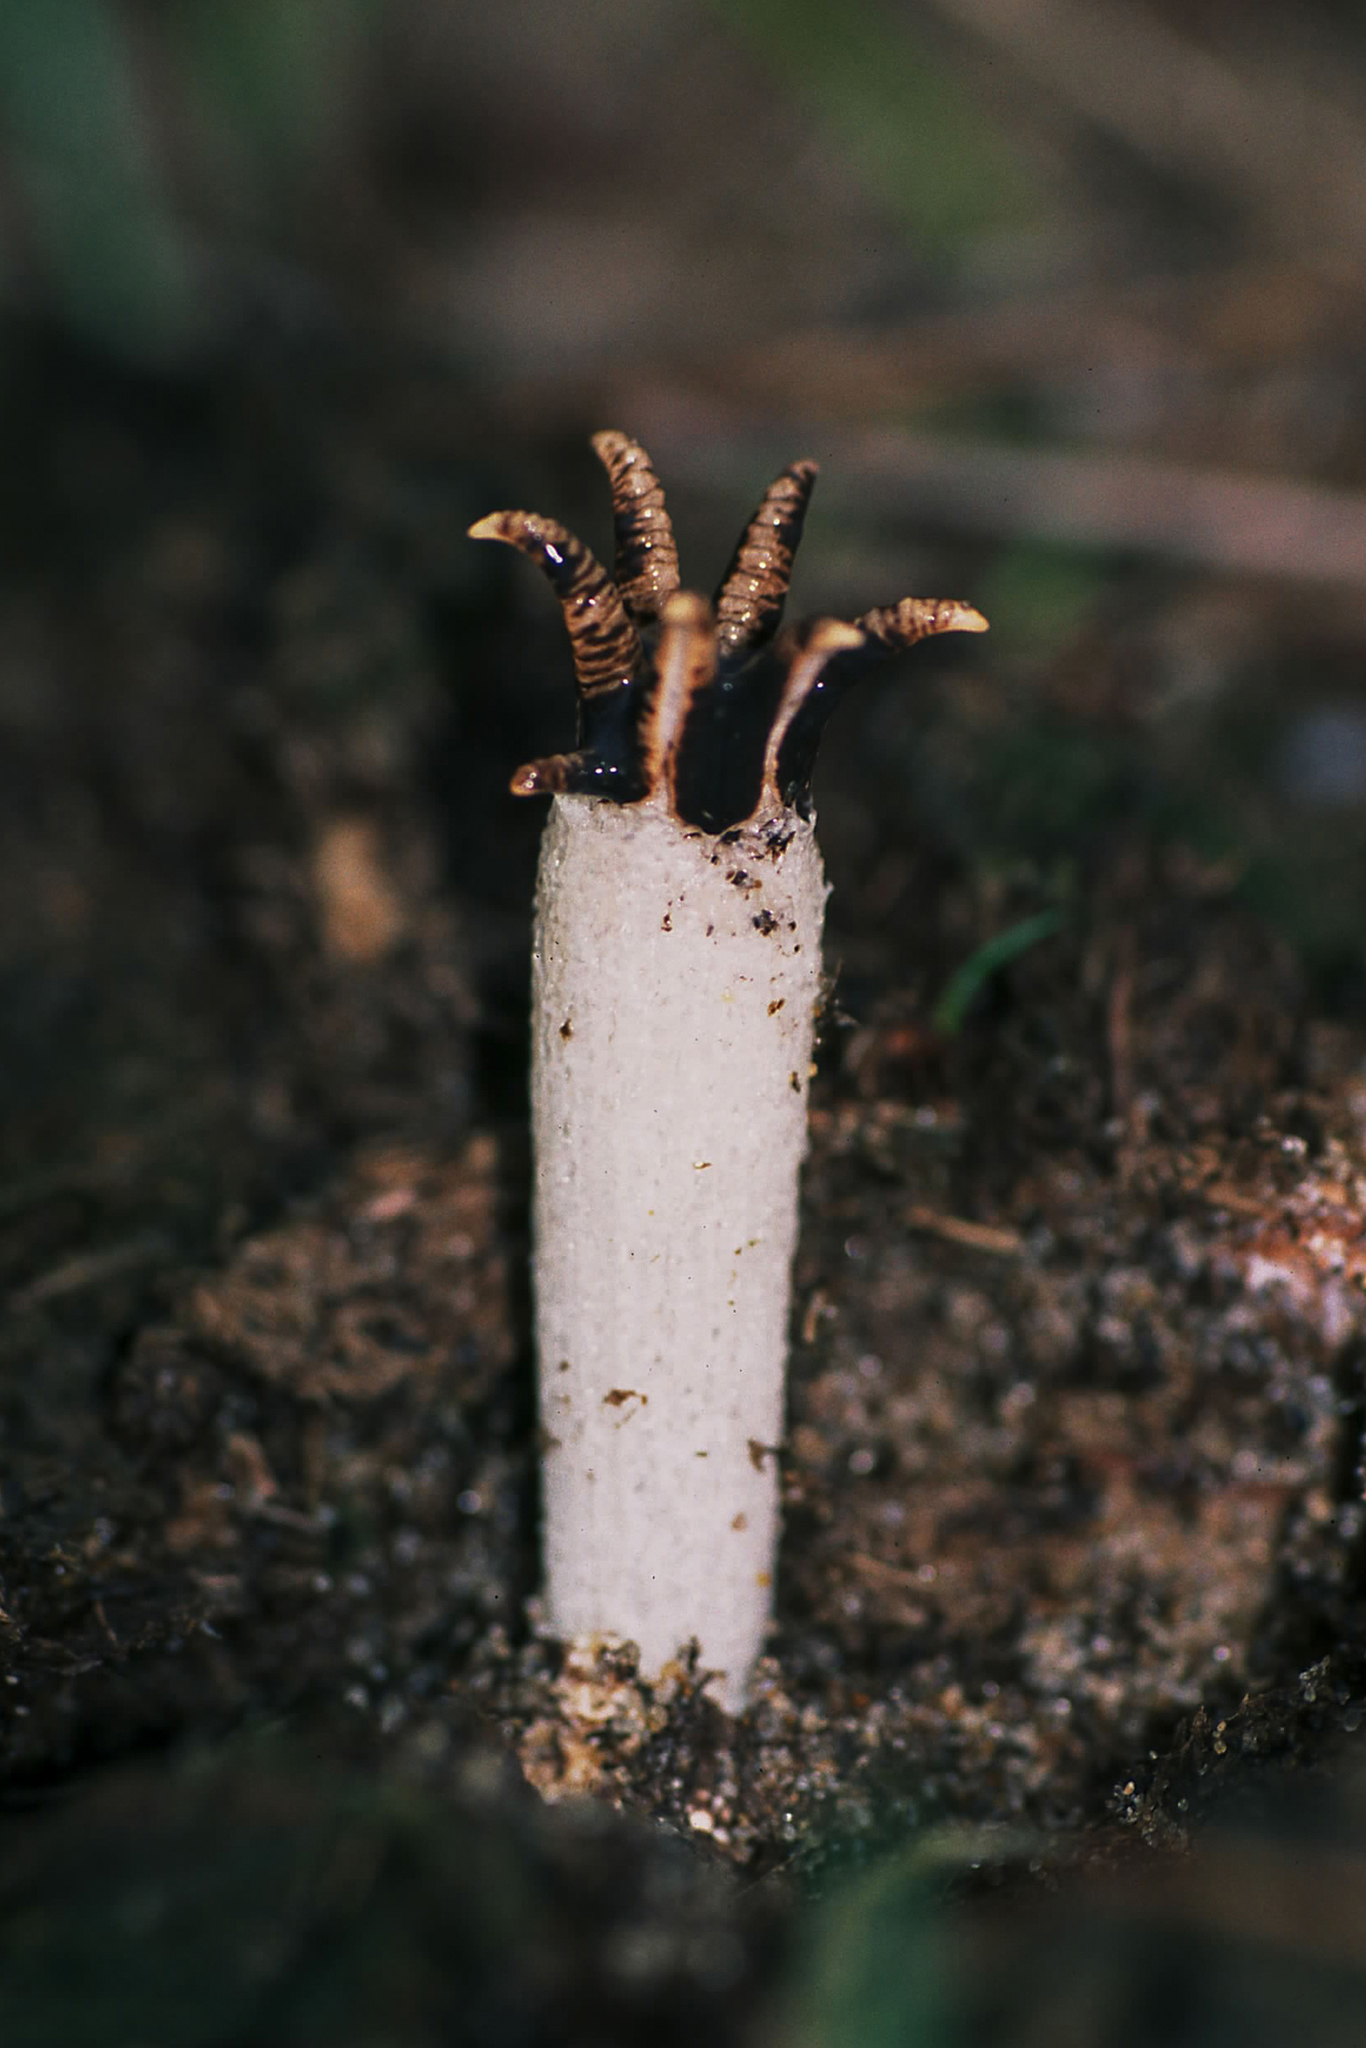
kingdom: Fungi
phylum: Basidiomycota
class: Agaricomycetes
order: Phallales
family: Phallaceae
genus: Lysurus
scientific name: Lysurus cruciatus
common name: Lizard's claw
